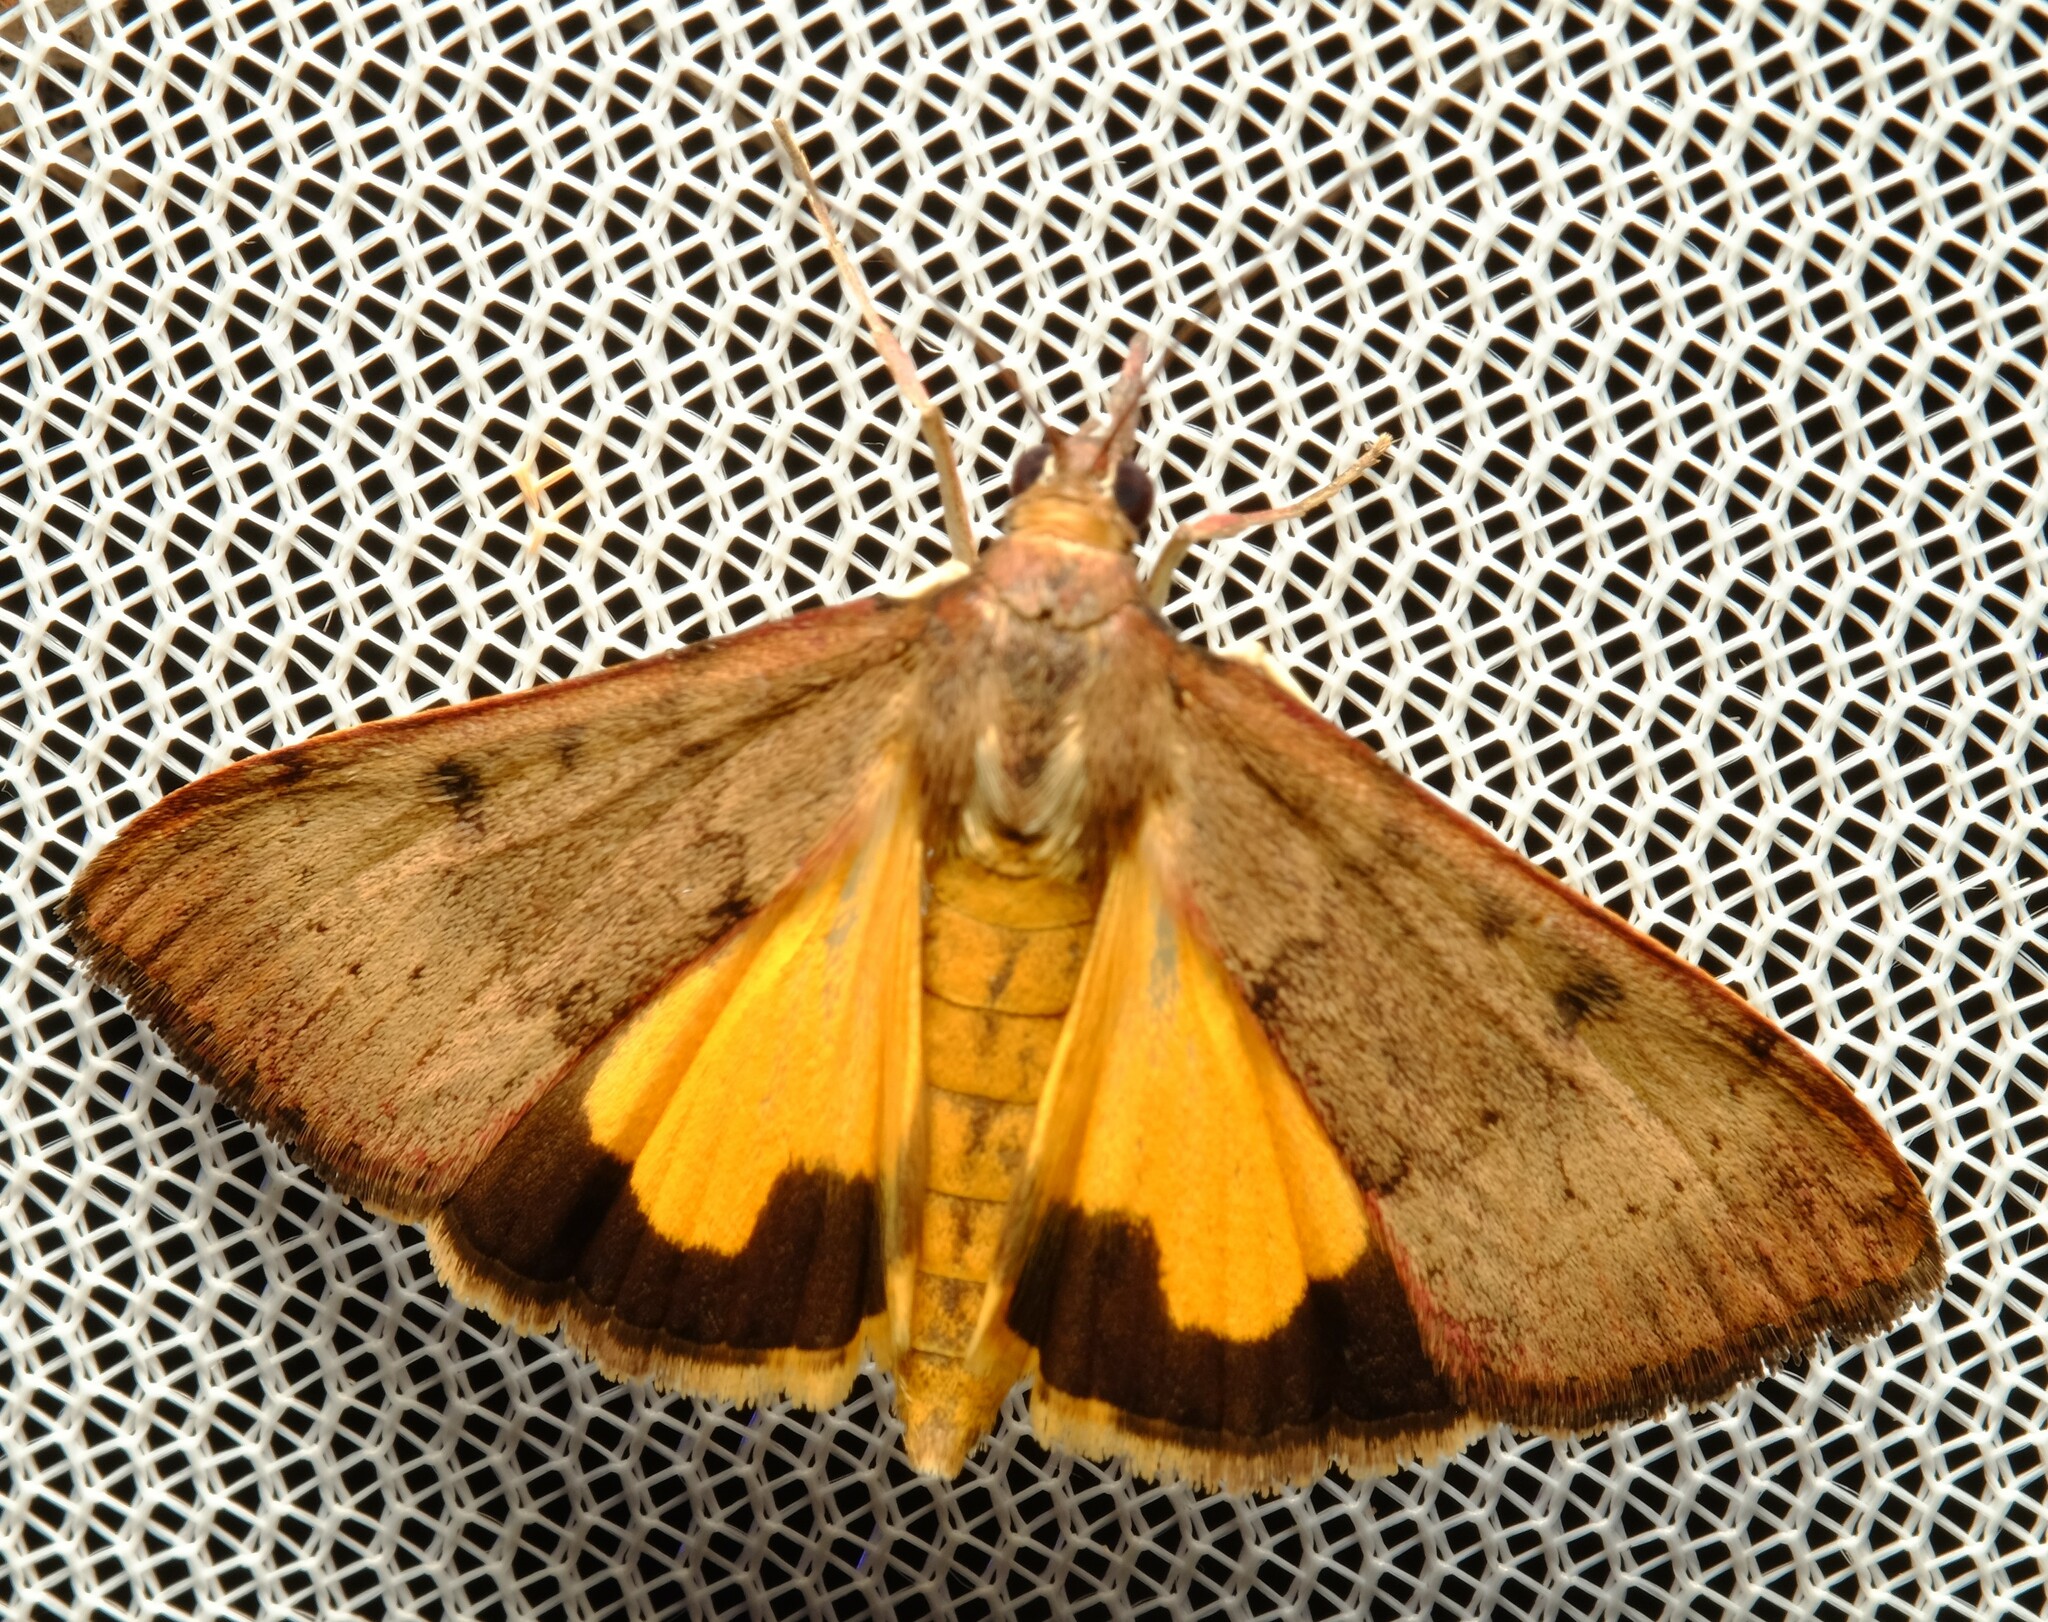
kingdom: Animalia
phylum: Arthropoda
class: Insecta
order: Lepidoptera
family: Crambidae
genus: Uresiphita
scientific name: Uresiphita ornithopteralis
